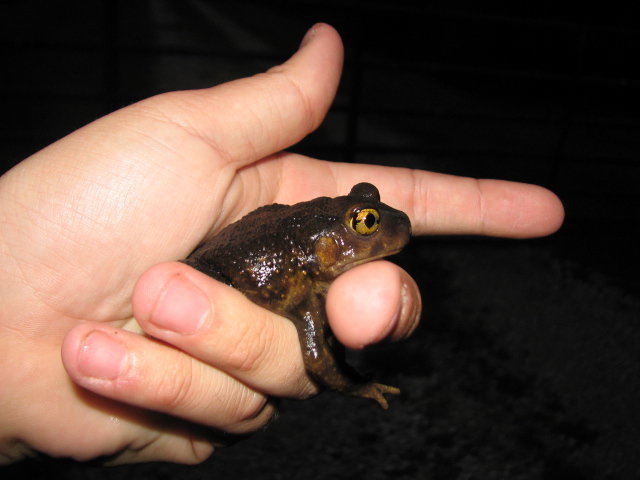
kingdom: Animalia
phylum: Chordata
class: Amphibia
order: Anura
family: Scaphiopodidae
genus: Scaphiopus
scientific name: Scaphiopus holbrookii
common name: Eastern spadefoot toad
